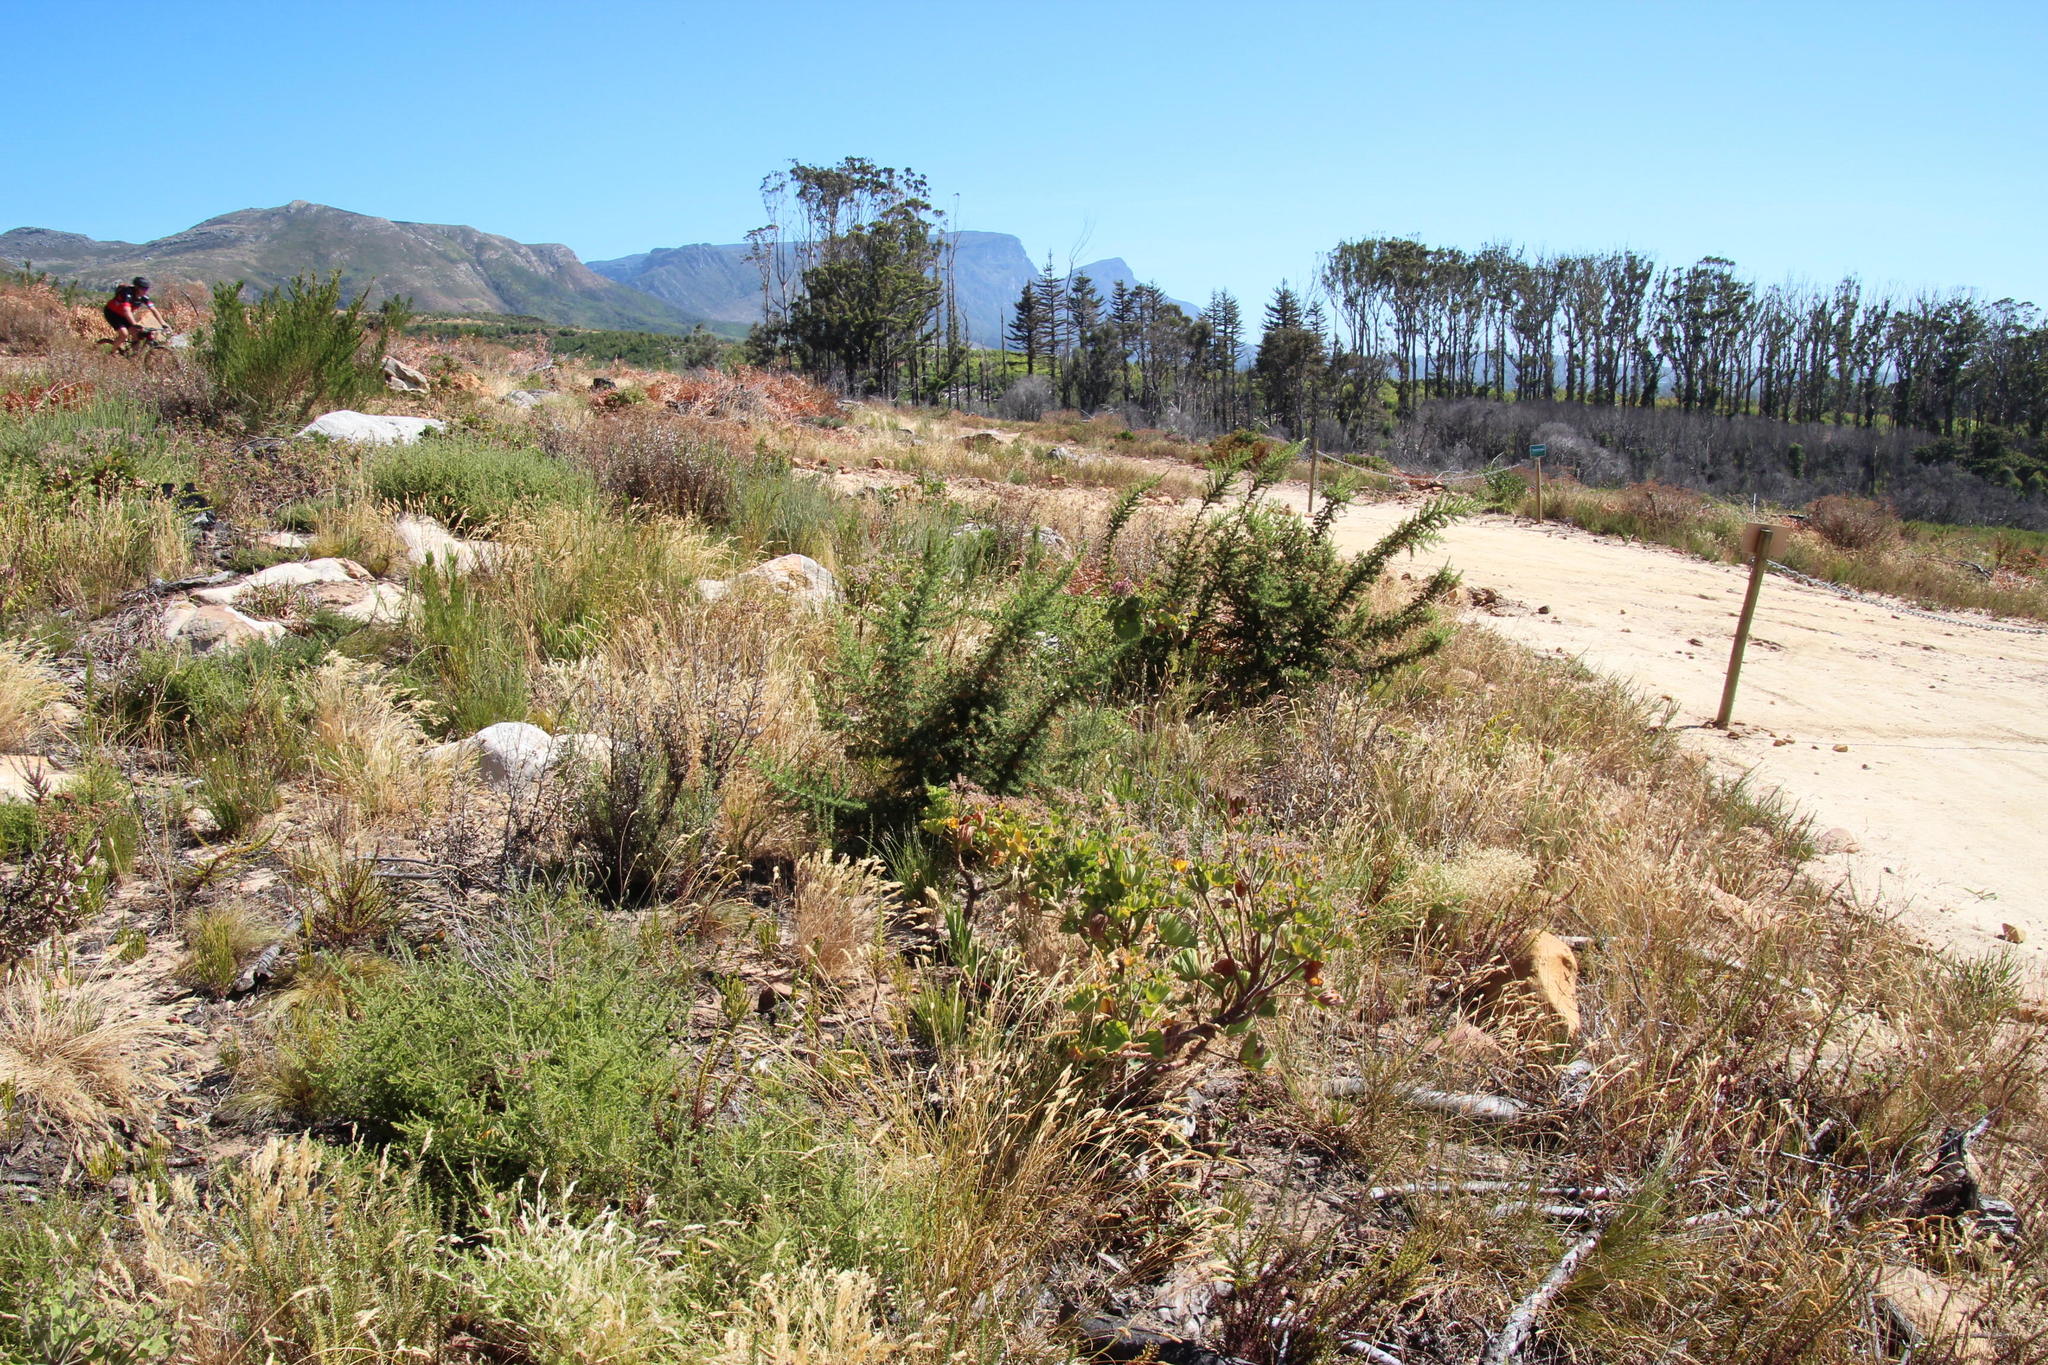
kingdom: Plantae
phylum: Tracheophyta
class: Magnoliopsida
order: Fabales
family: Fabaceae
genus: Aspalathus
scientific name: Aspalathus astroites
